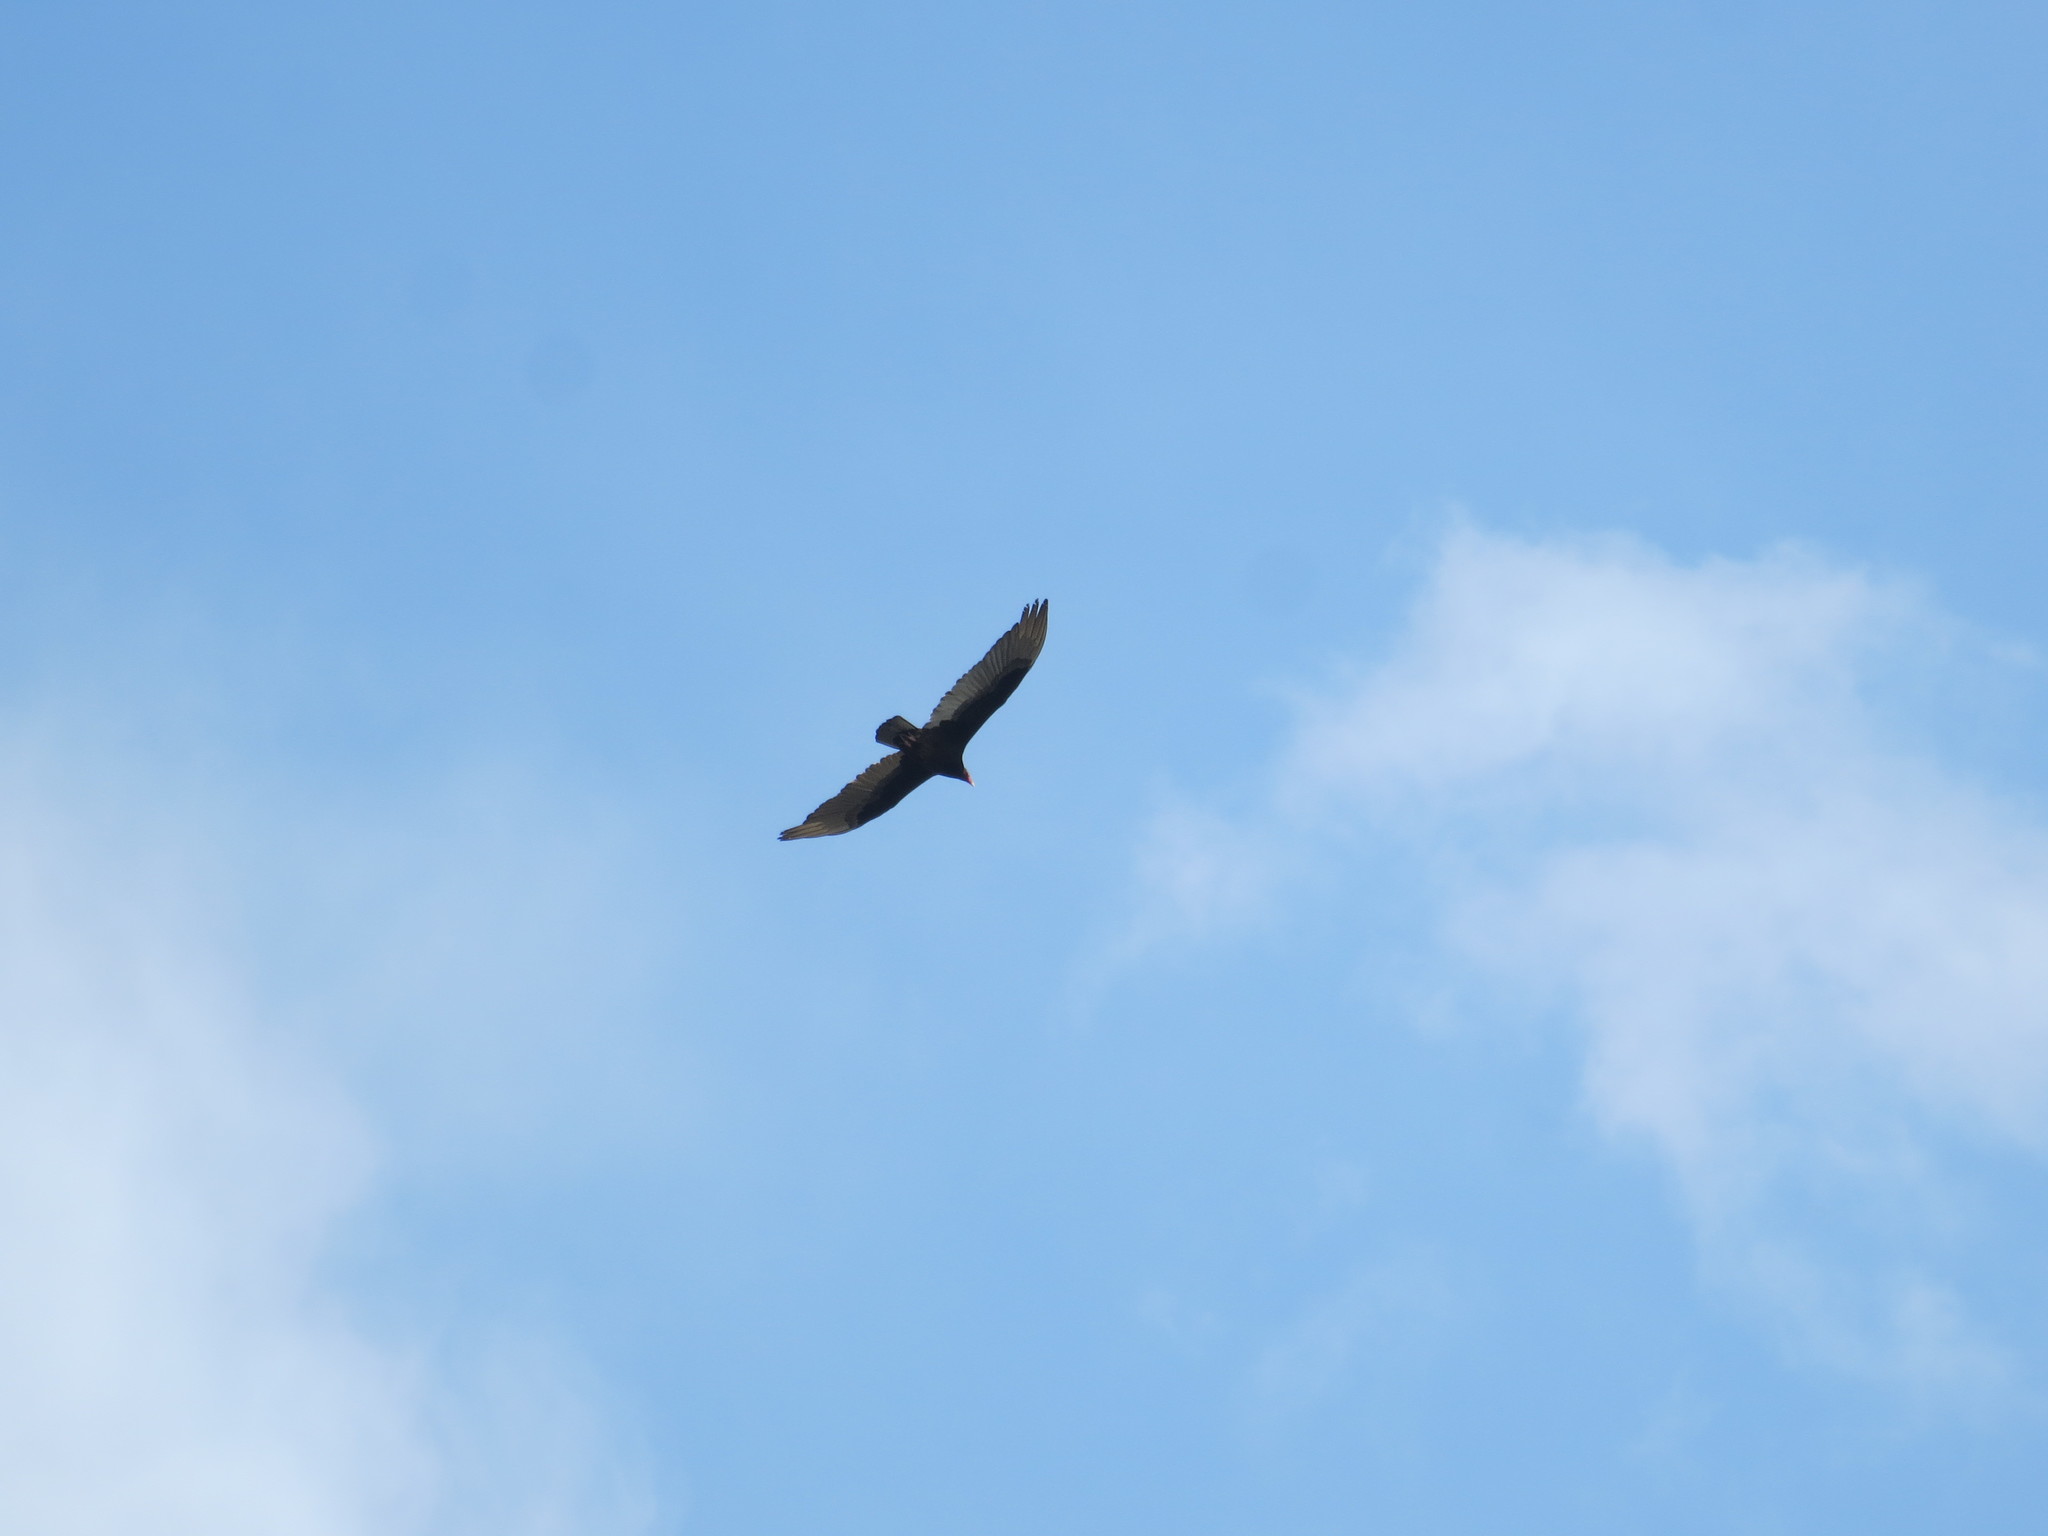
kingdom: Animalia
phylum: Chordata
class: Aves
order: Accipitriformes
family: Cathartidae
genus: Cathartes
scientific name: Cathartes aura
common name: Turkey vulture
